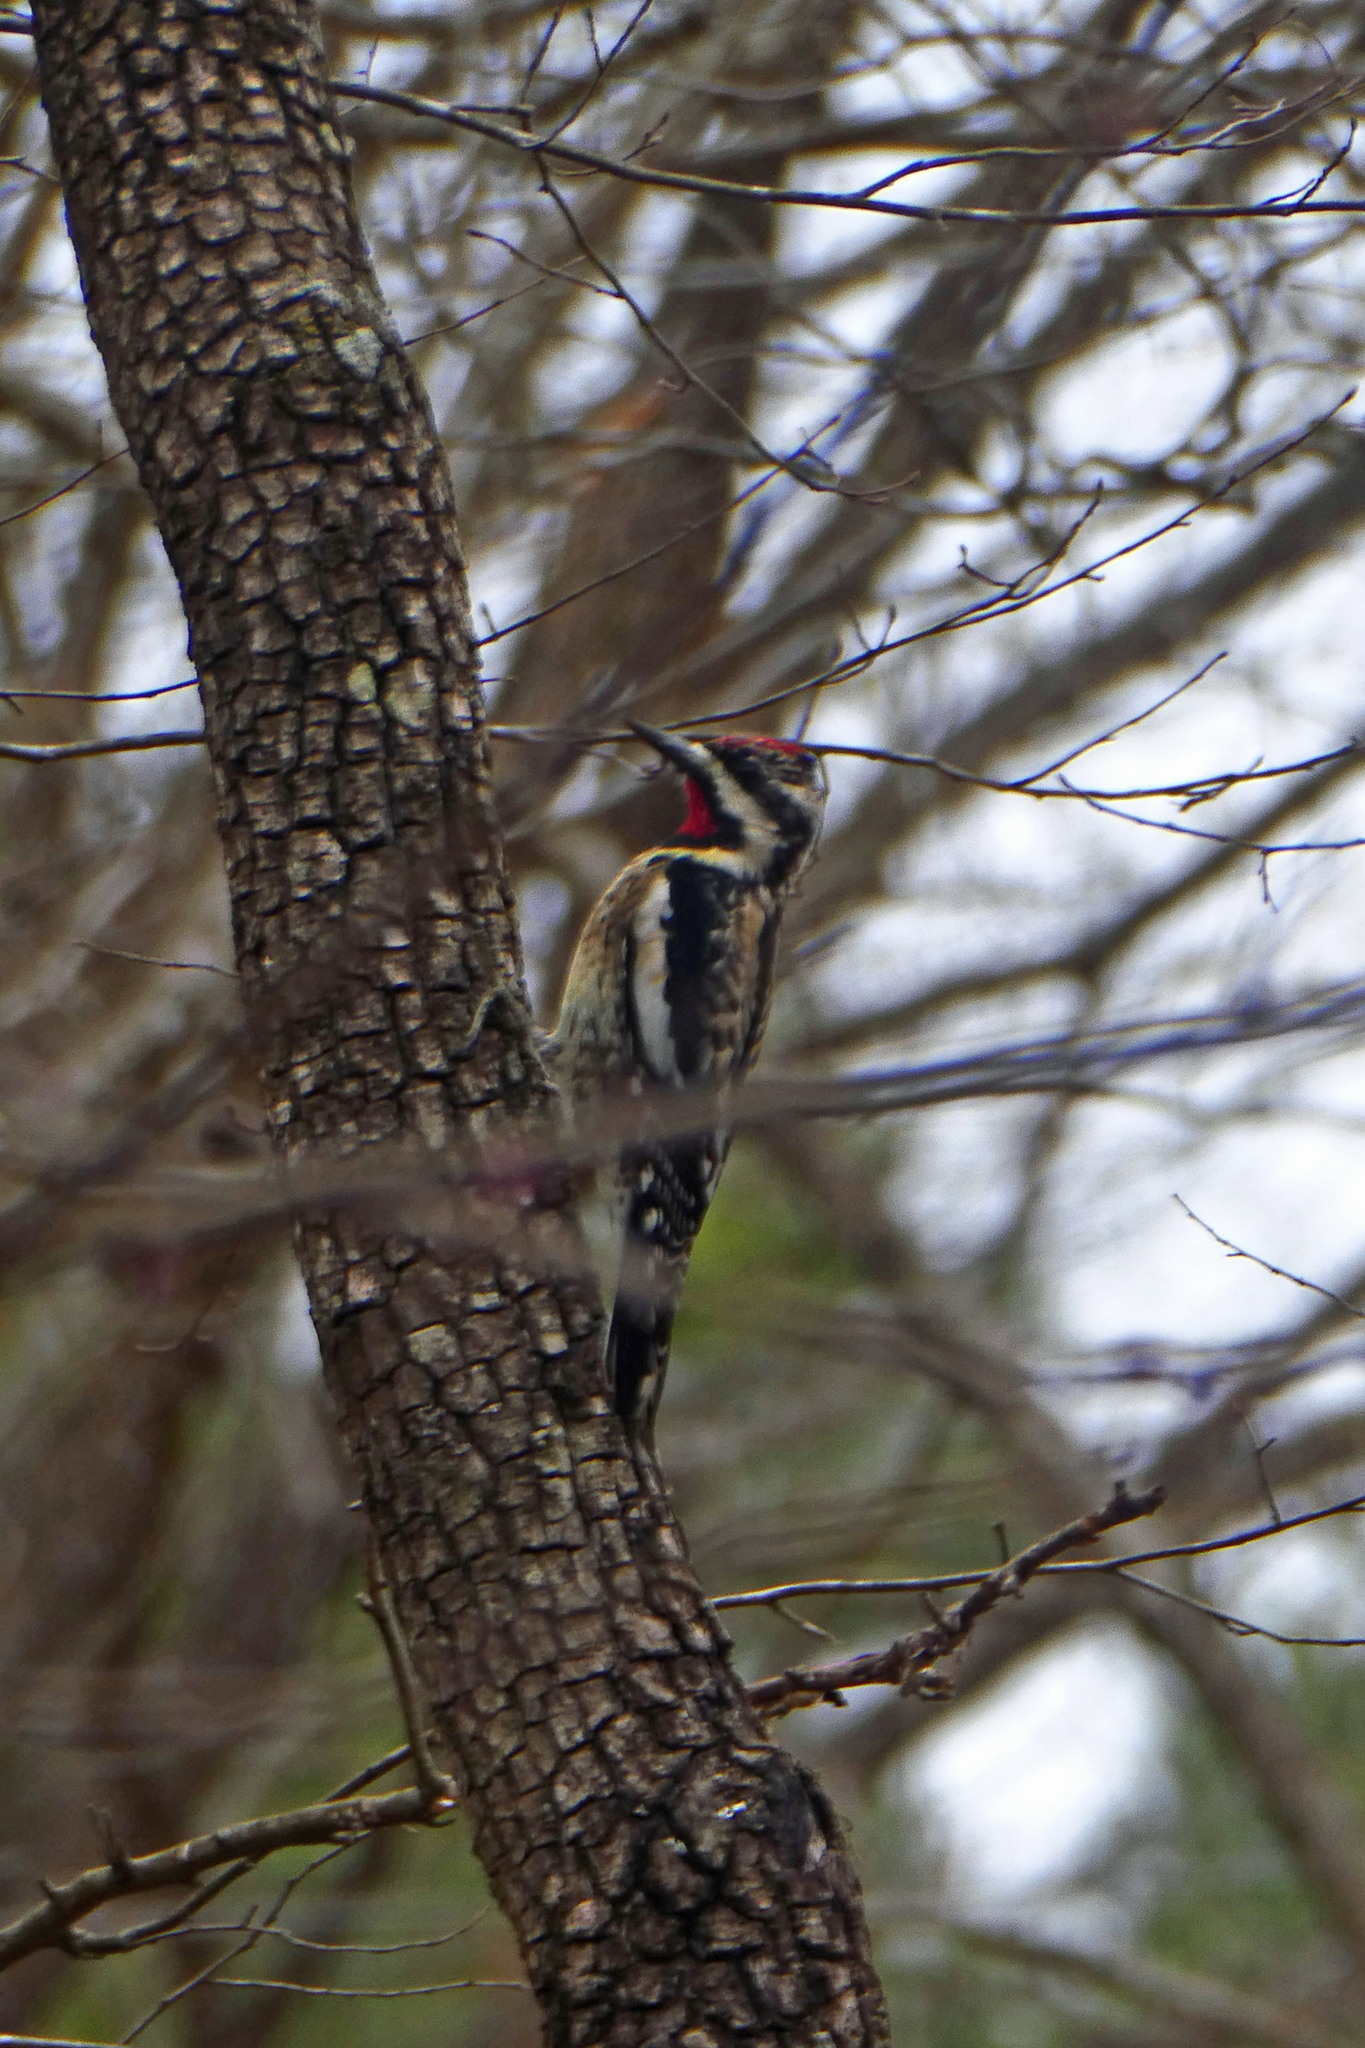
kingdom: Animalia
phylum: Chordata
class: Aves
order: Piciformes
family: Picidae
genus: Sphyrapicus
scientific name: Sphyrapicus varius
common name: Yellow-bellied sapsucker
